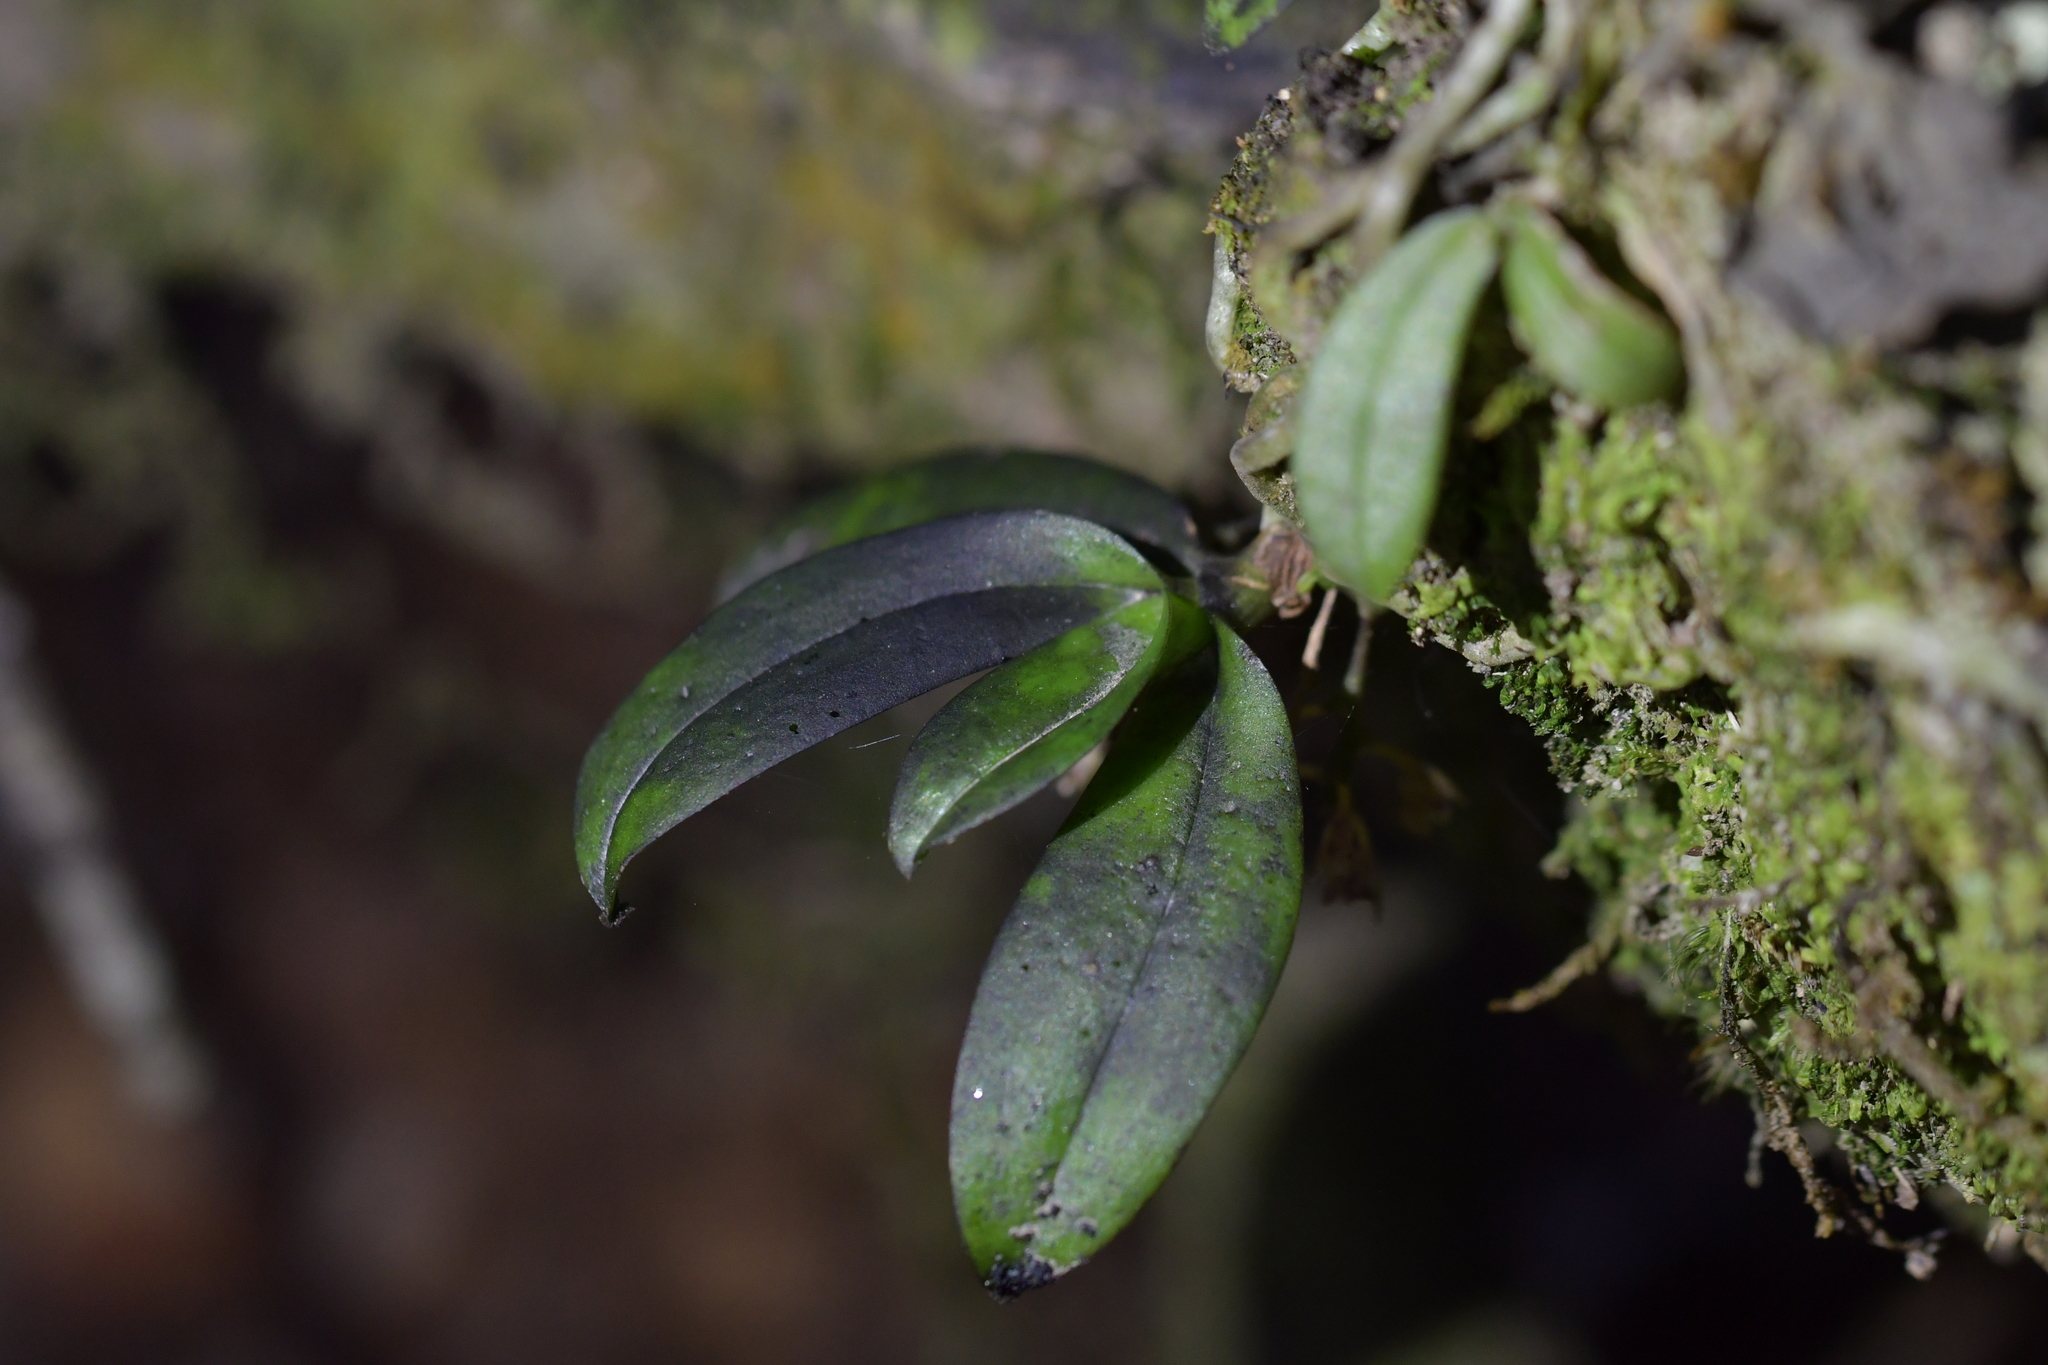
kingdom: Plantae
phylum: Tracheophyta
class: Liliopsida
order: Asparagales
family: Orchidaceae
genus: Drymoanthus
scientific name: Drymoanthus adversus
